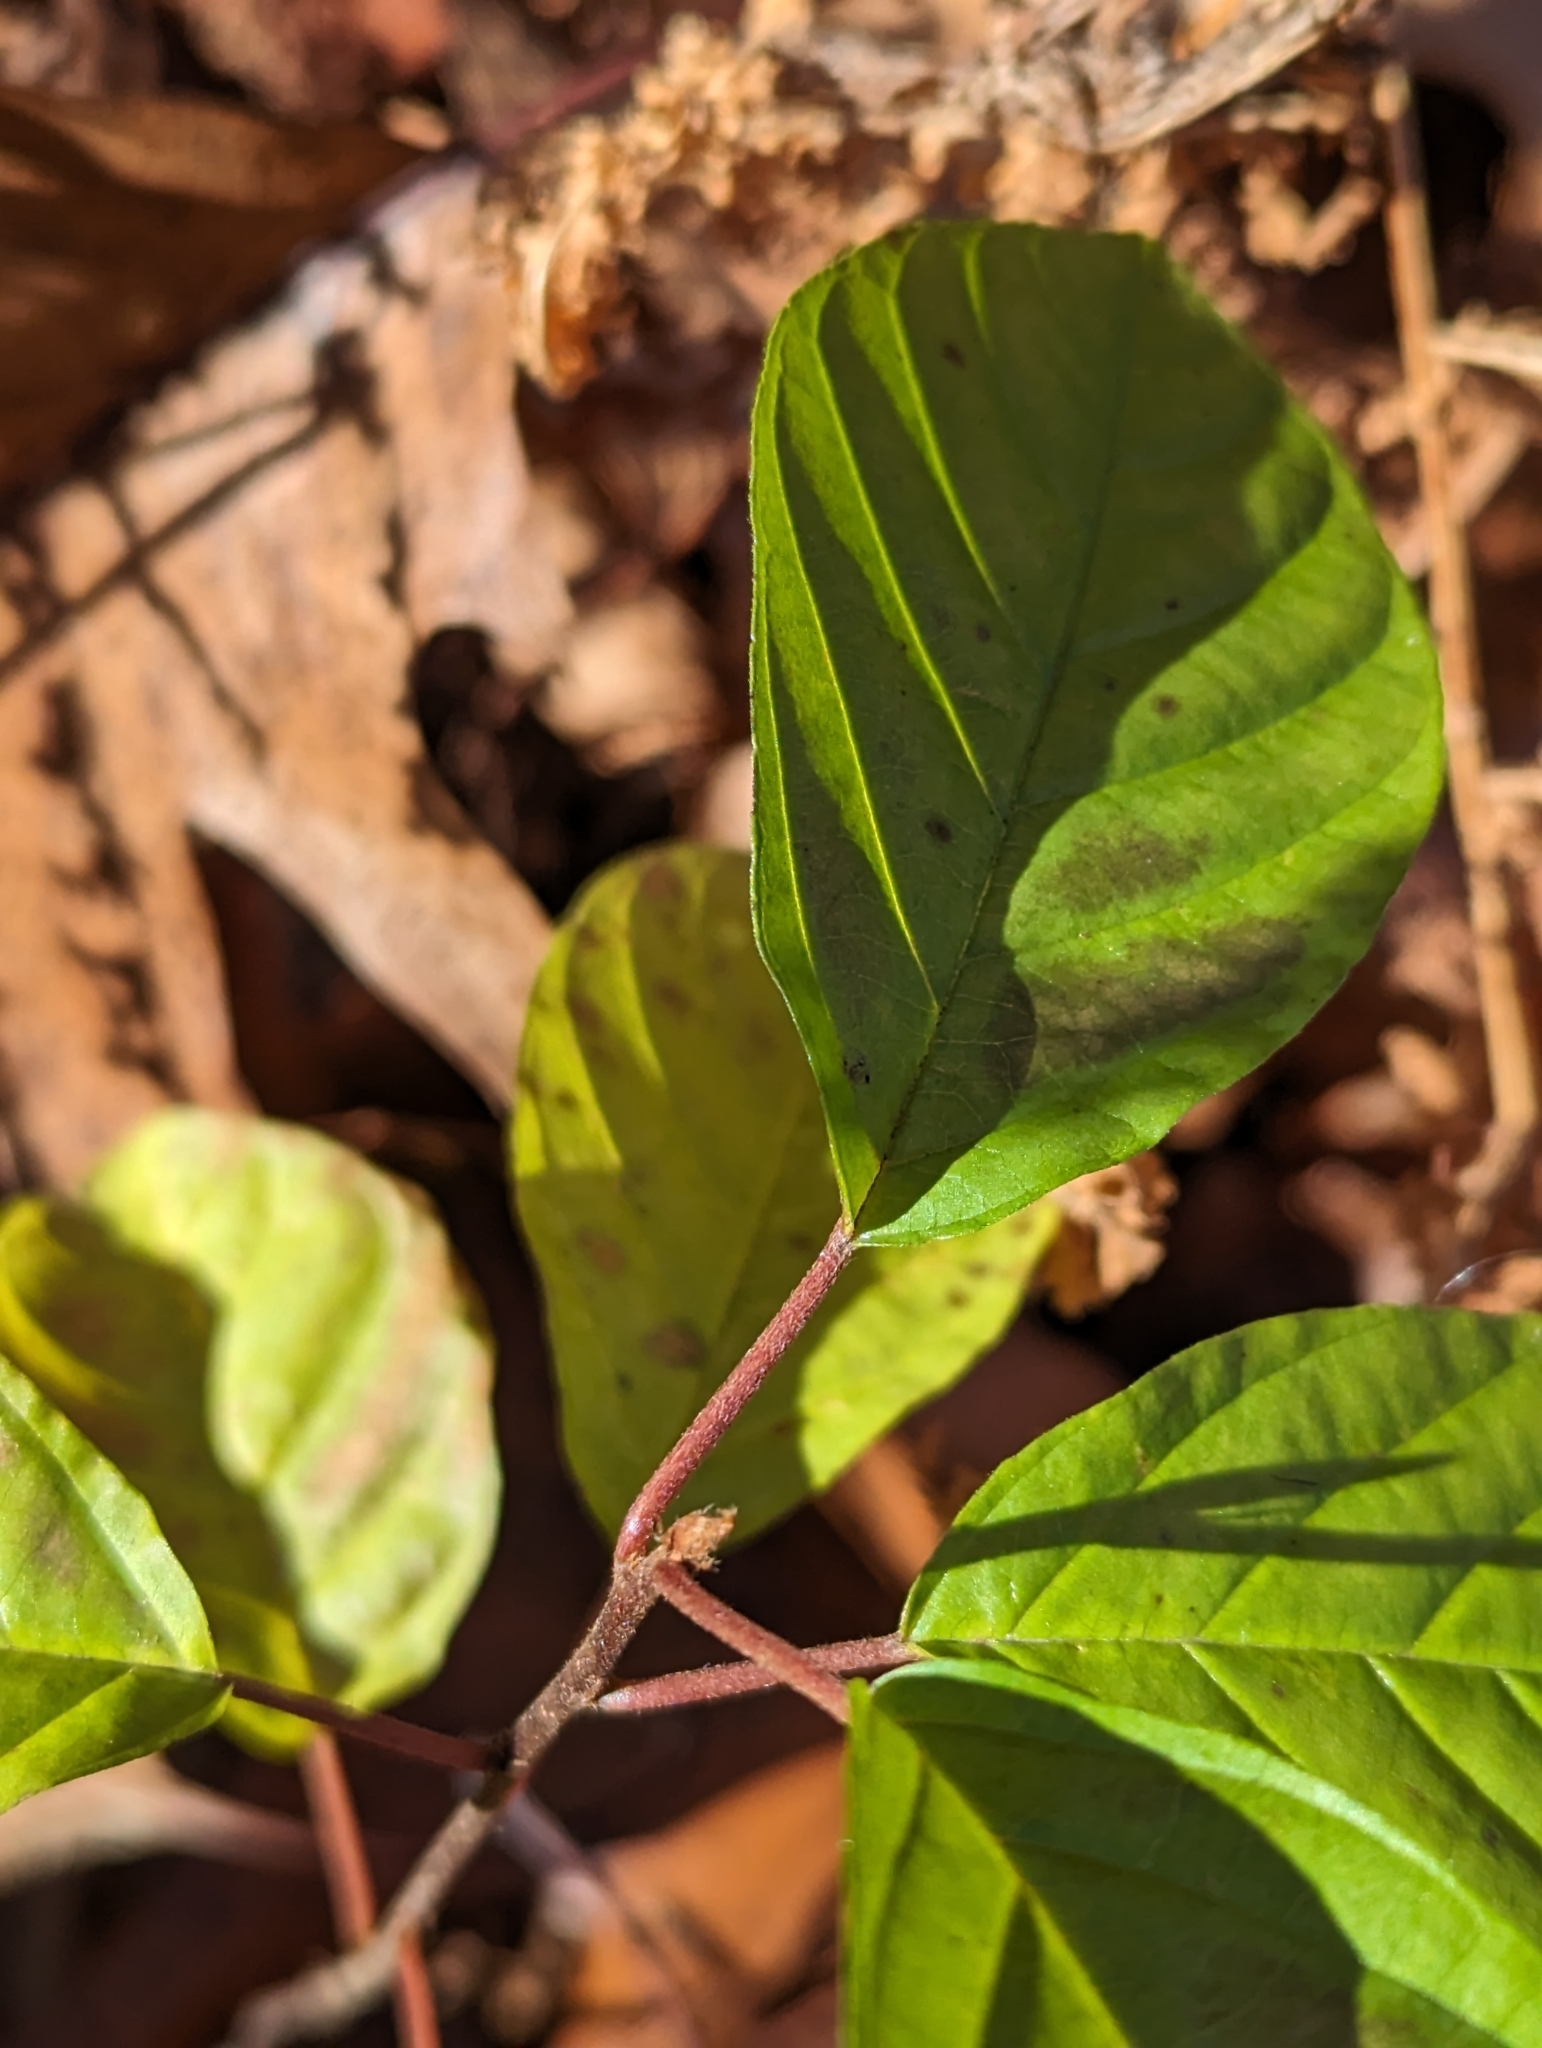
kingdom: Plantae
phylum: Tracheophyta
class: Magnoliopsida
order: Rosales
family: Rhamnaceae
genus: Frangula
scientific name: Frangula alnus
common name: Alder buckthorn
